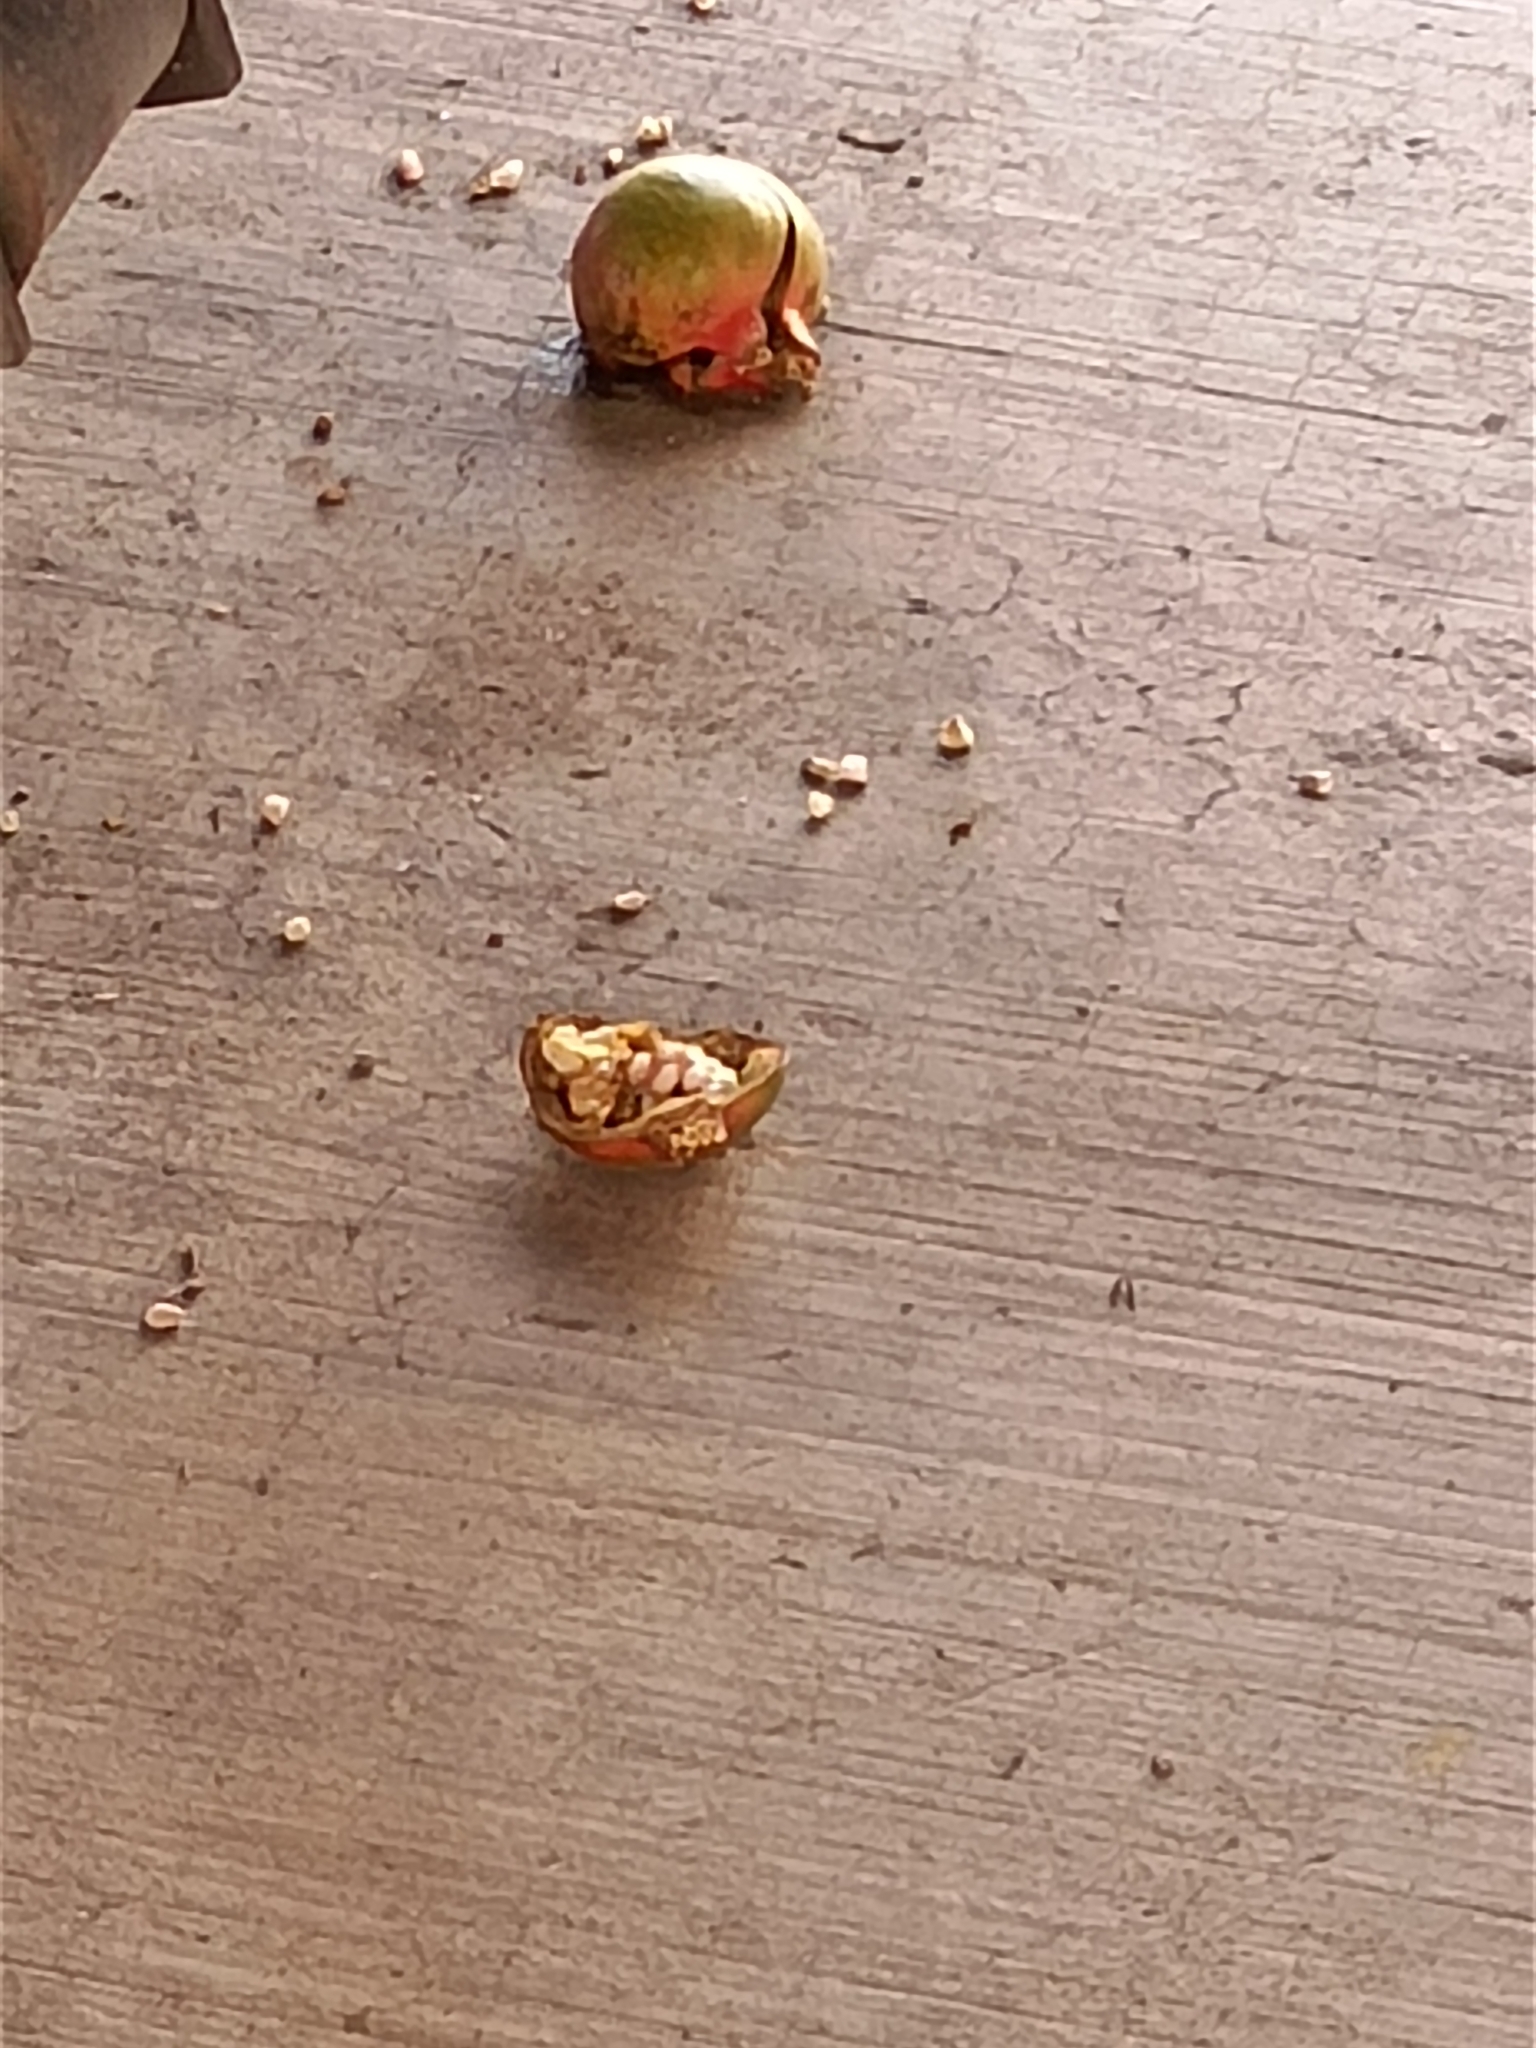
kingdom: Plantae
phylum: Tracheophyta
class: Magnoliopsida
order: Myrtales
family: Lythraceae
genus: Punica
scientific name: Punica granatum
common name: Pomegranate
